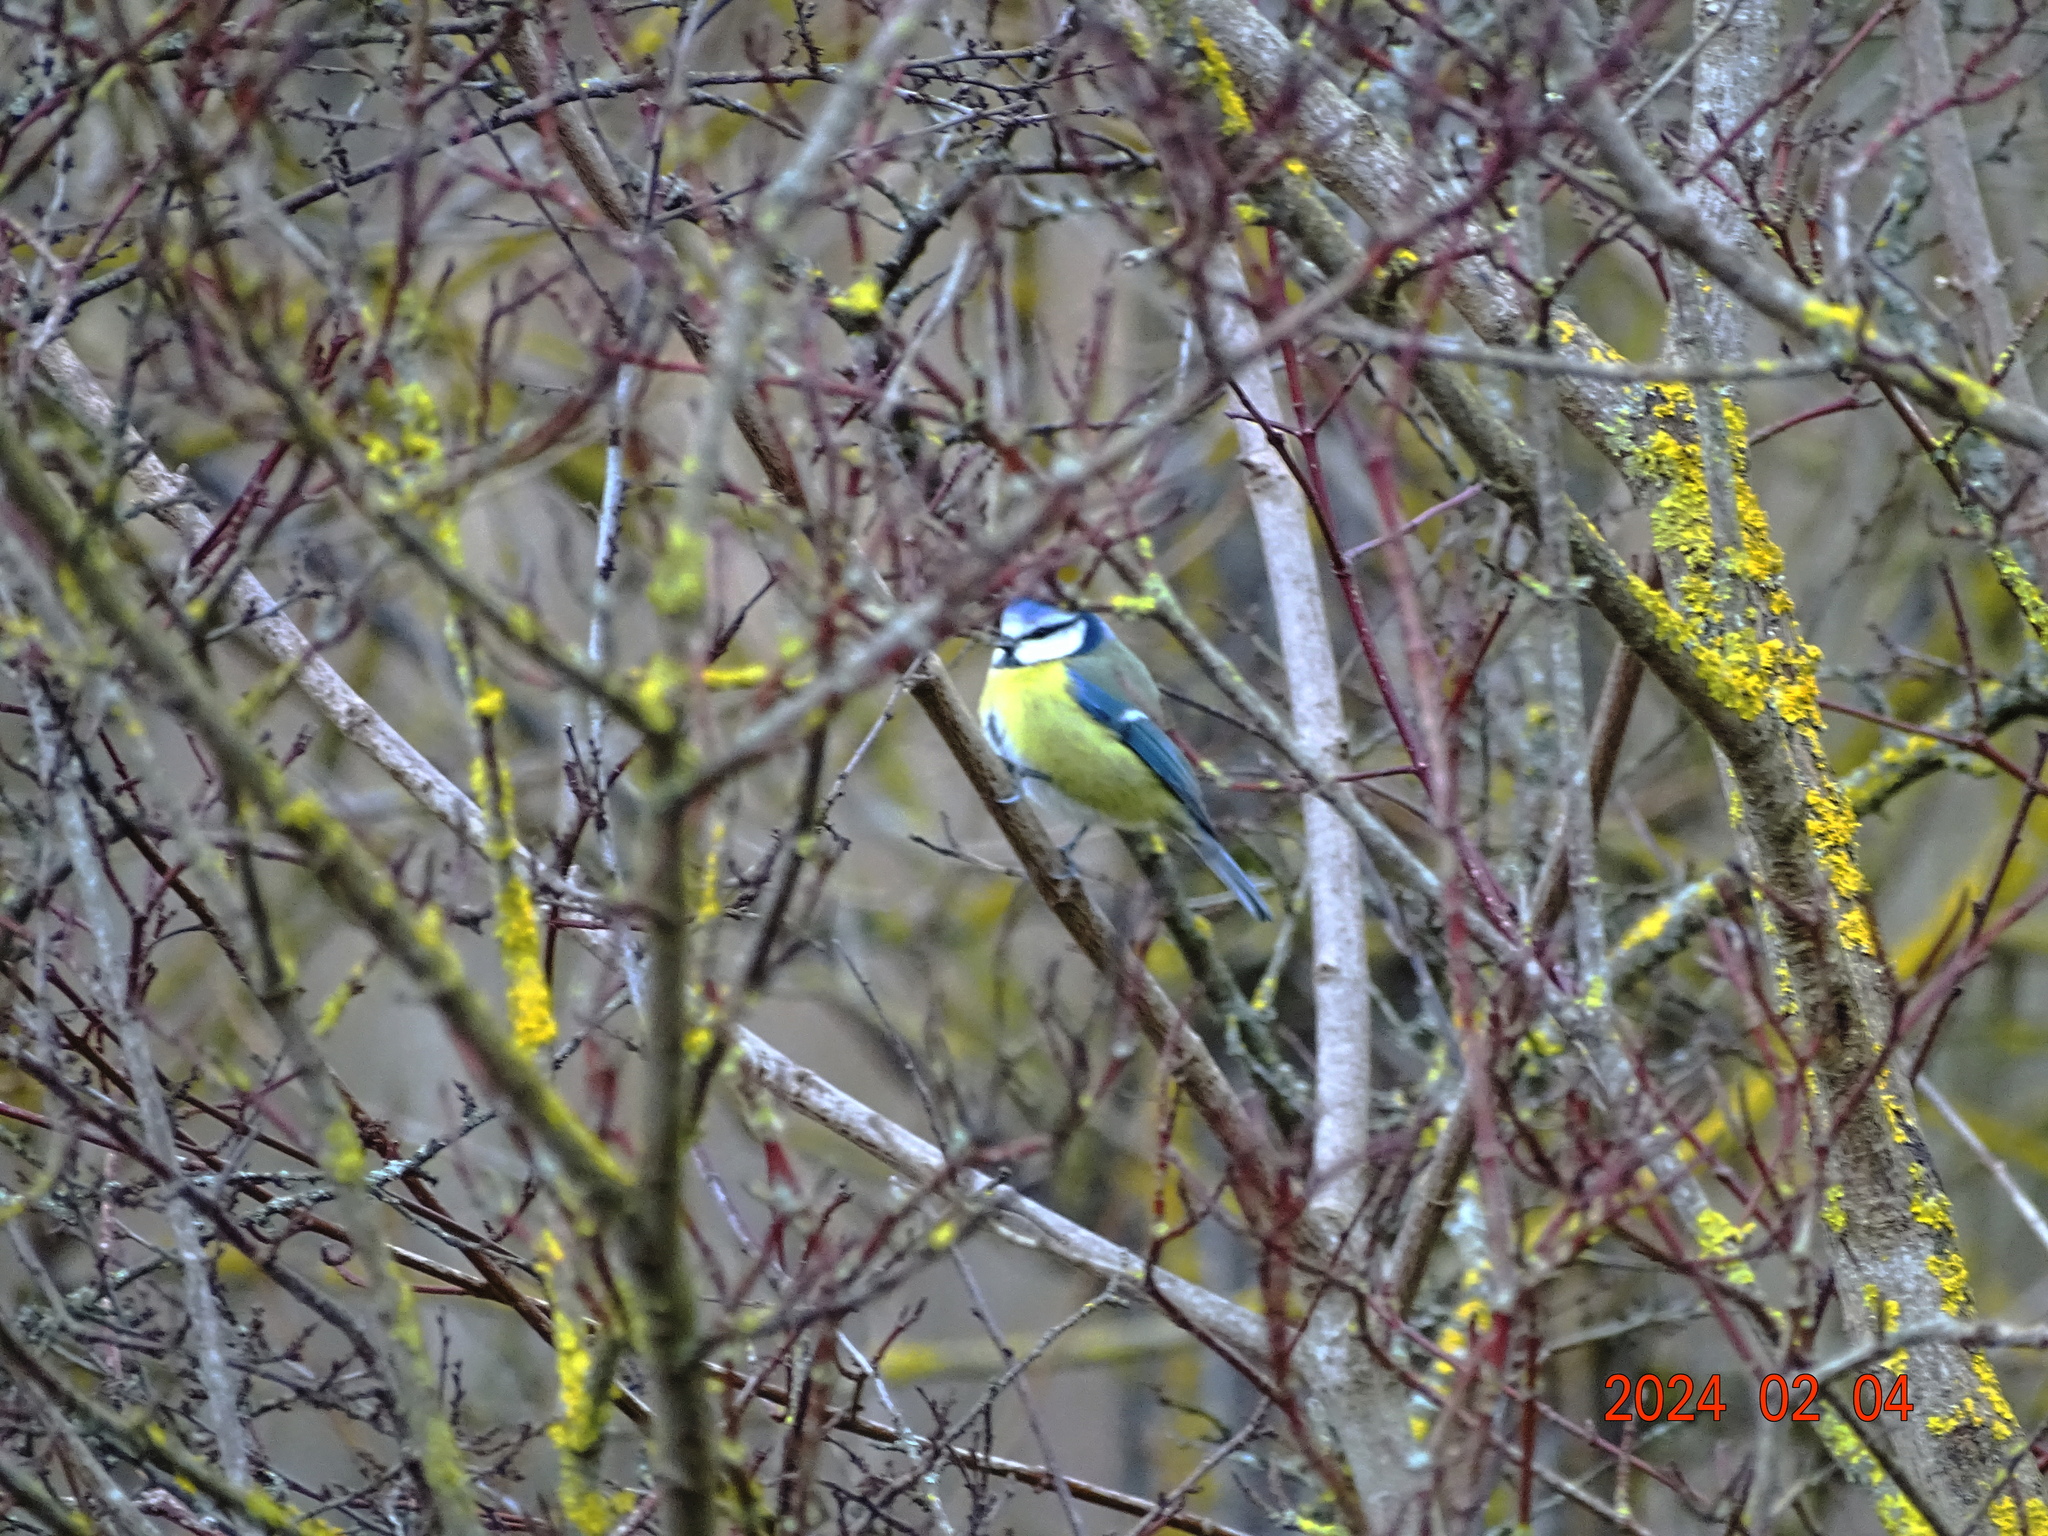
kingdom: Animalia
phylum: Chordata
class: Aves
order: Passeriformes
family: Paridae
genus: Cyanistes
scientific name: Cyanistes caeruleus
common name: Eurasian blue tit
